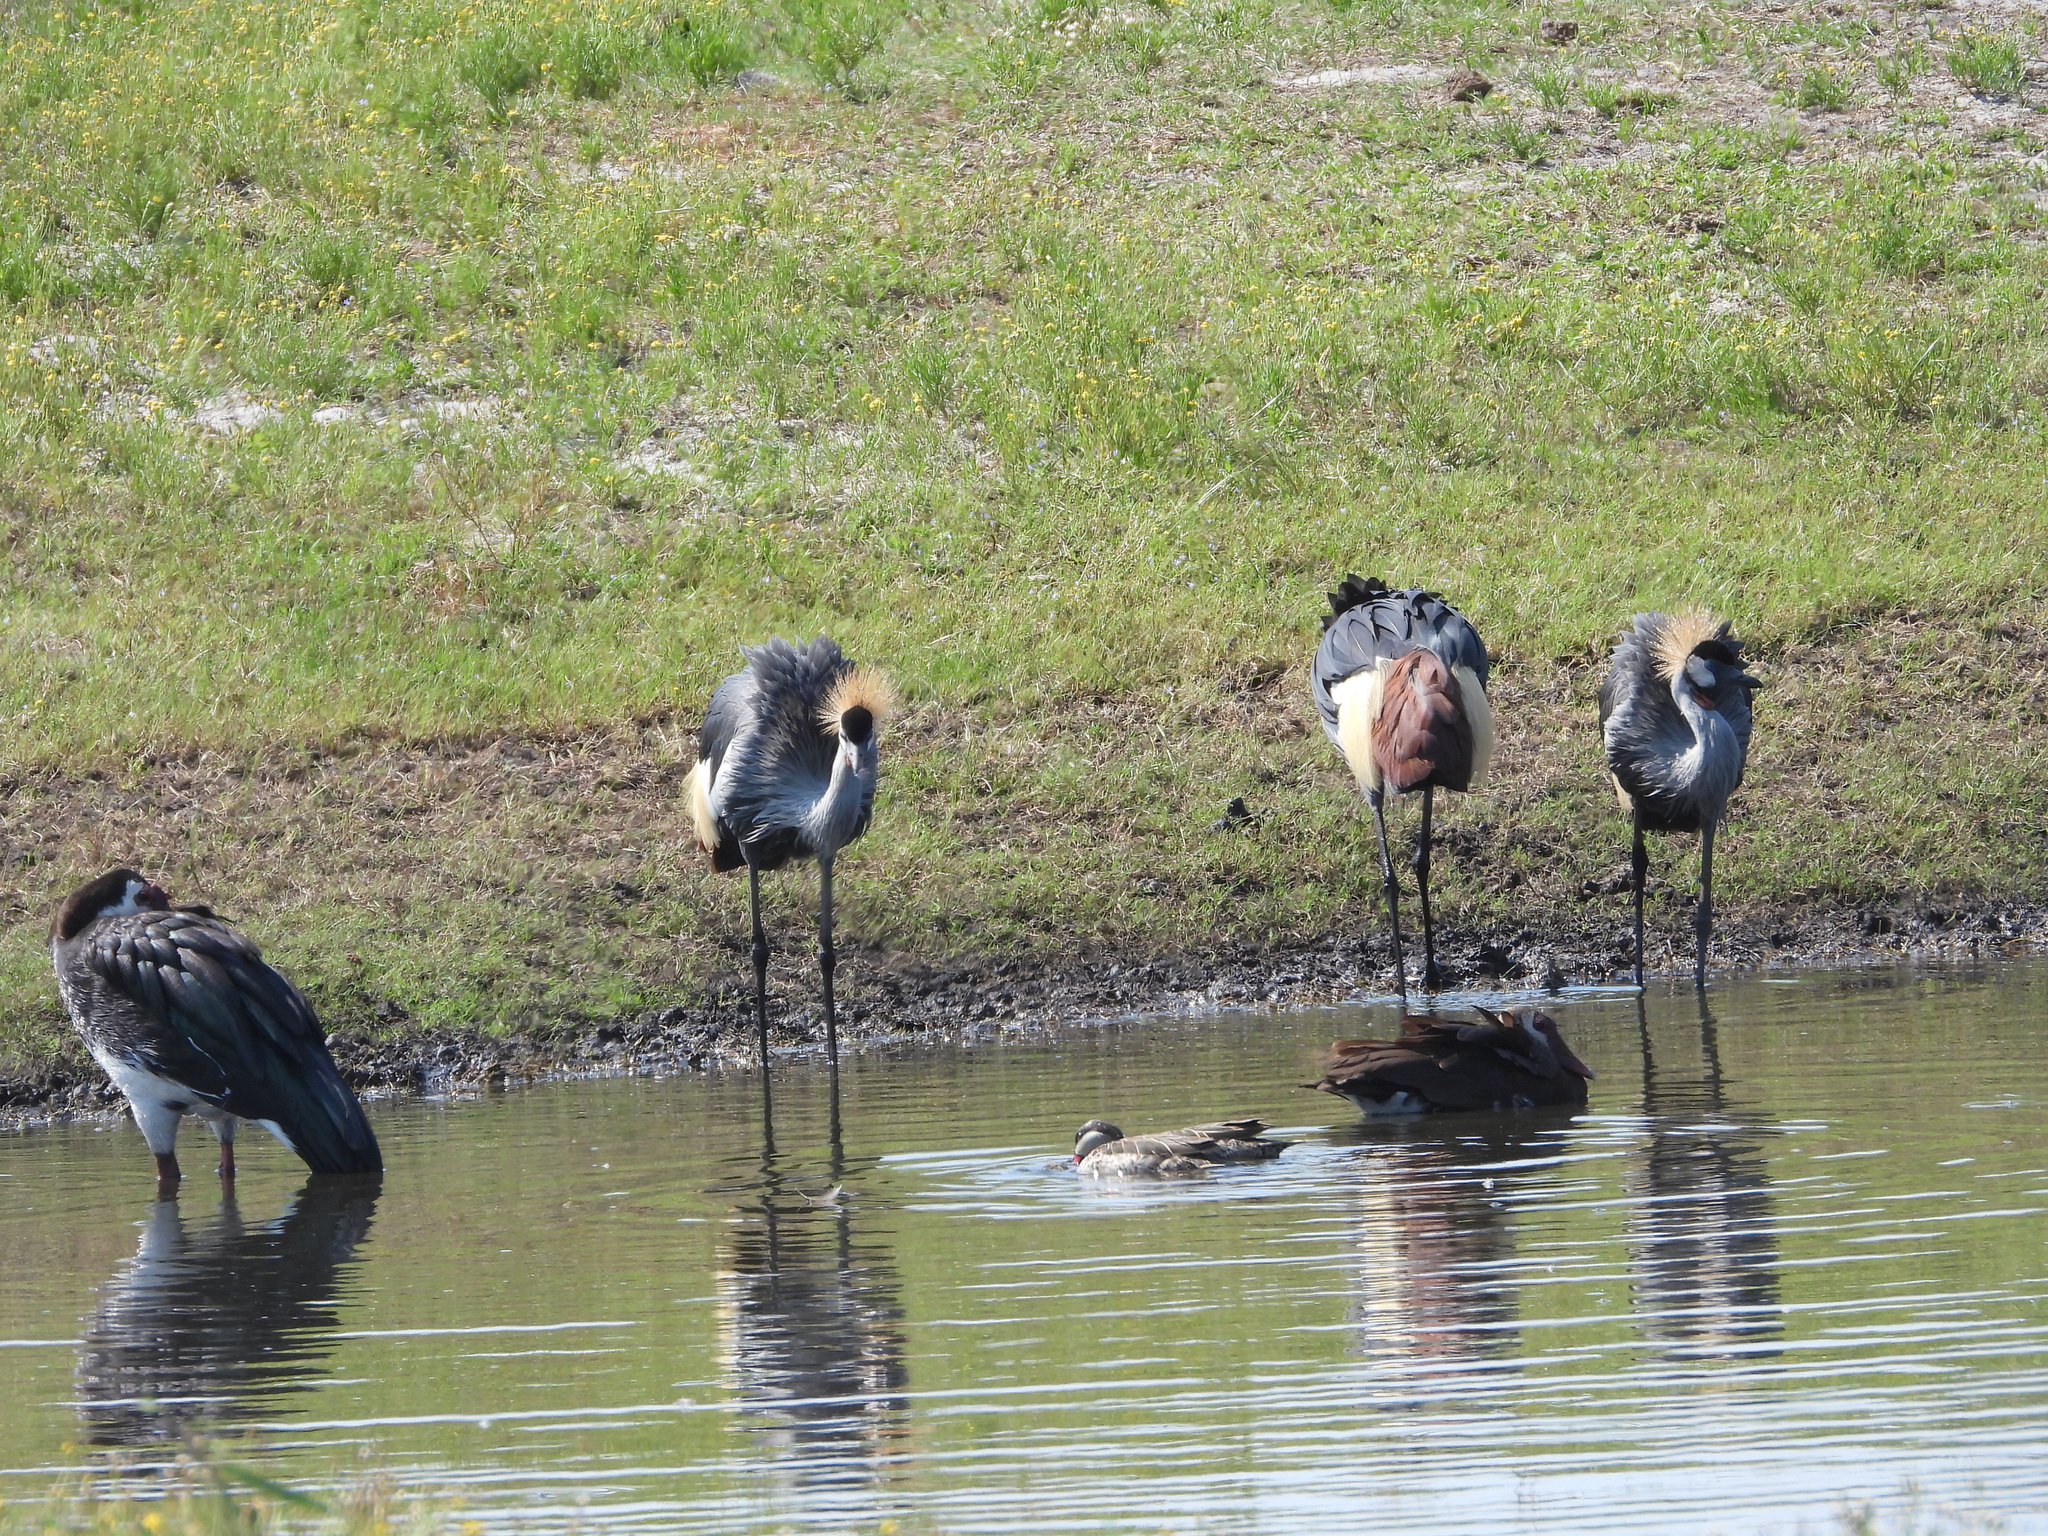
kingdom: Animalia
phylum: Chordata
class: Aves
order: Gruiformes
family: Gruidae
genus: Balearica
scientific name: Balearica regulorum
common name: Grey crowned crane
